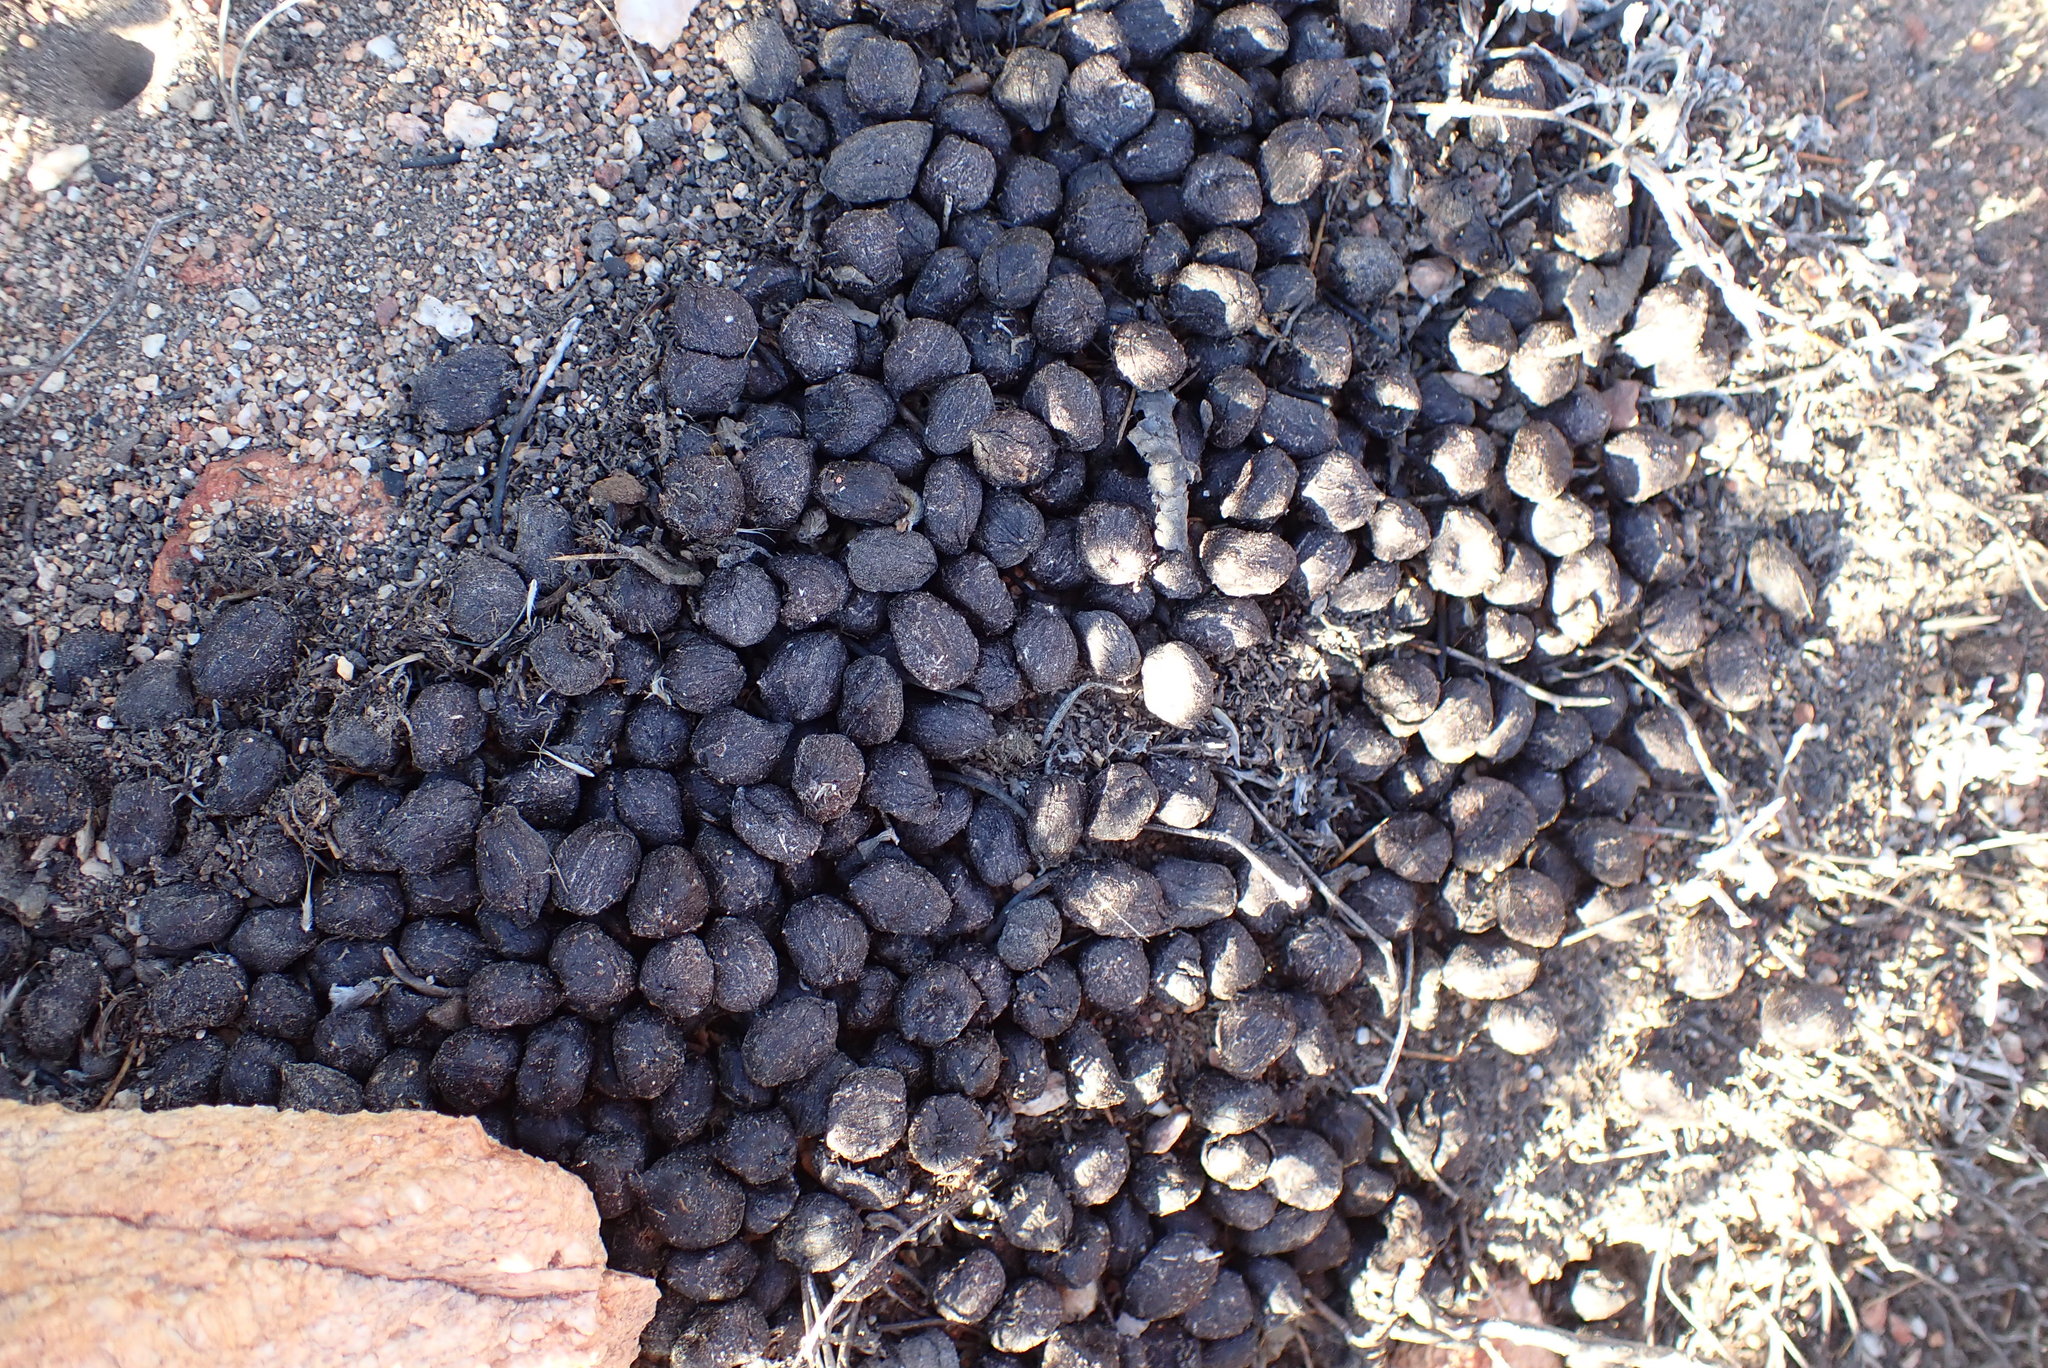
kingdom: Animalia
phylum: Chordata
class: Mammalia
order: Artiodactyla
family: Bovidae
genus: Oreotragus
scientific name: Oreotragus oreotragus
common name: Klipspringer
